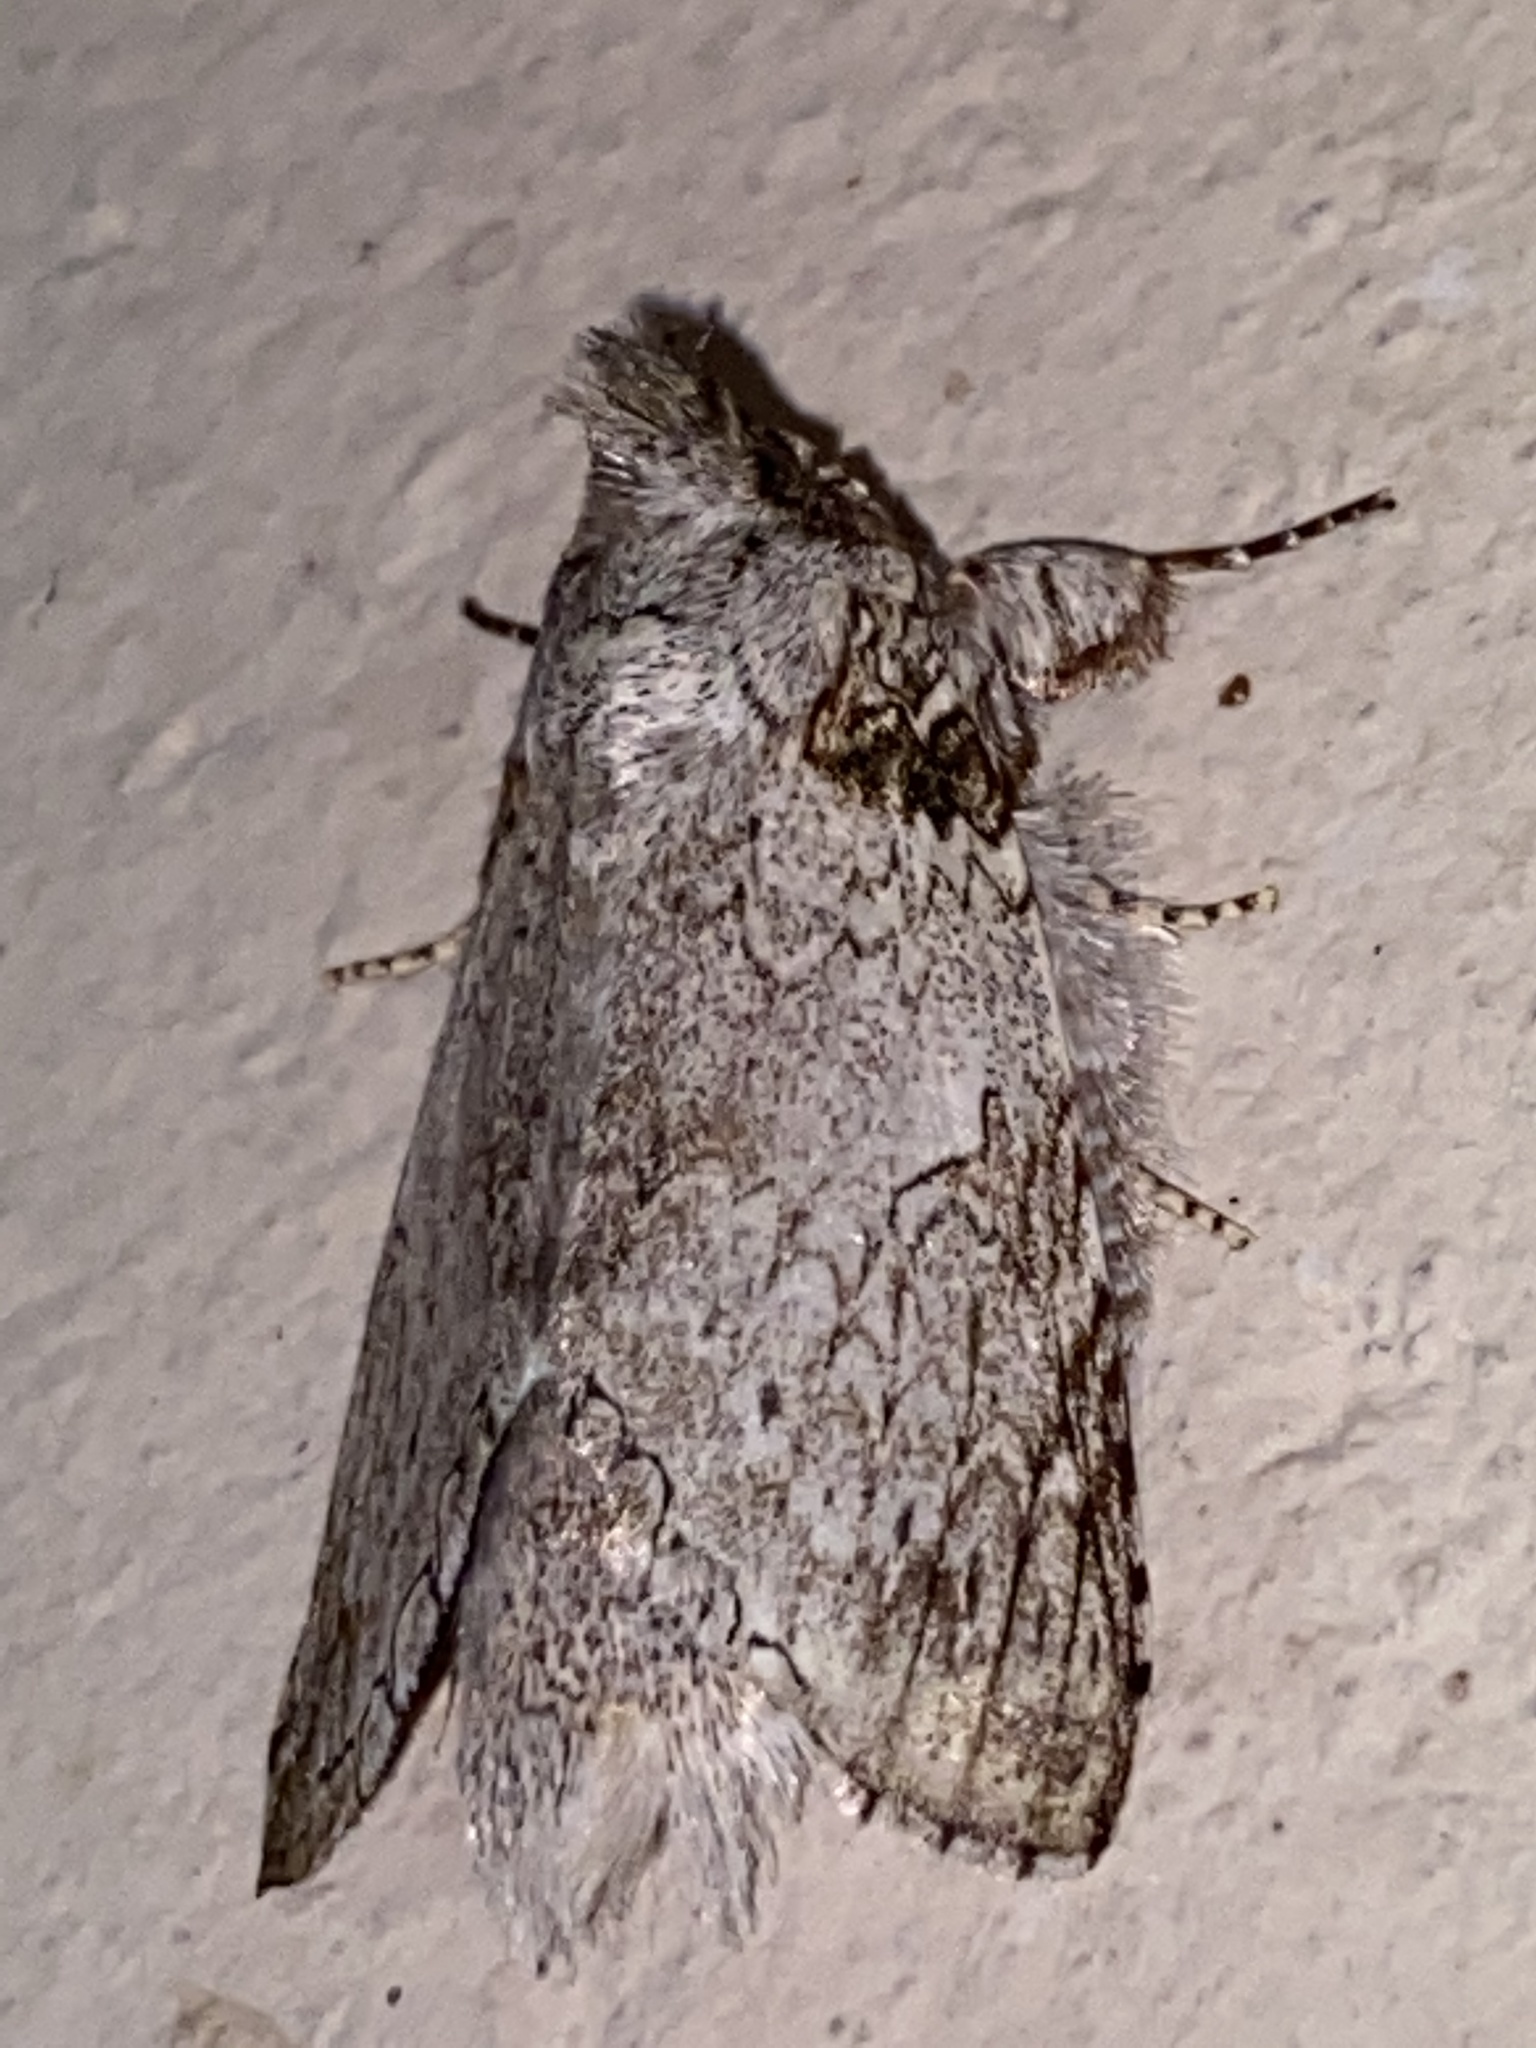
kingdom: Animalia
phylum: Arthropoda
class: Insecta
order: Lepidoptera
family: Notodontidae
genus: Rifargia
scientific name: Rifargia distinguenda
